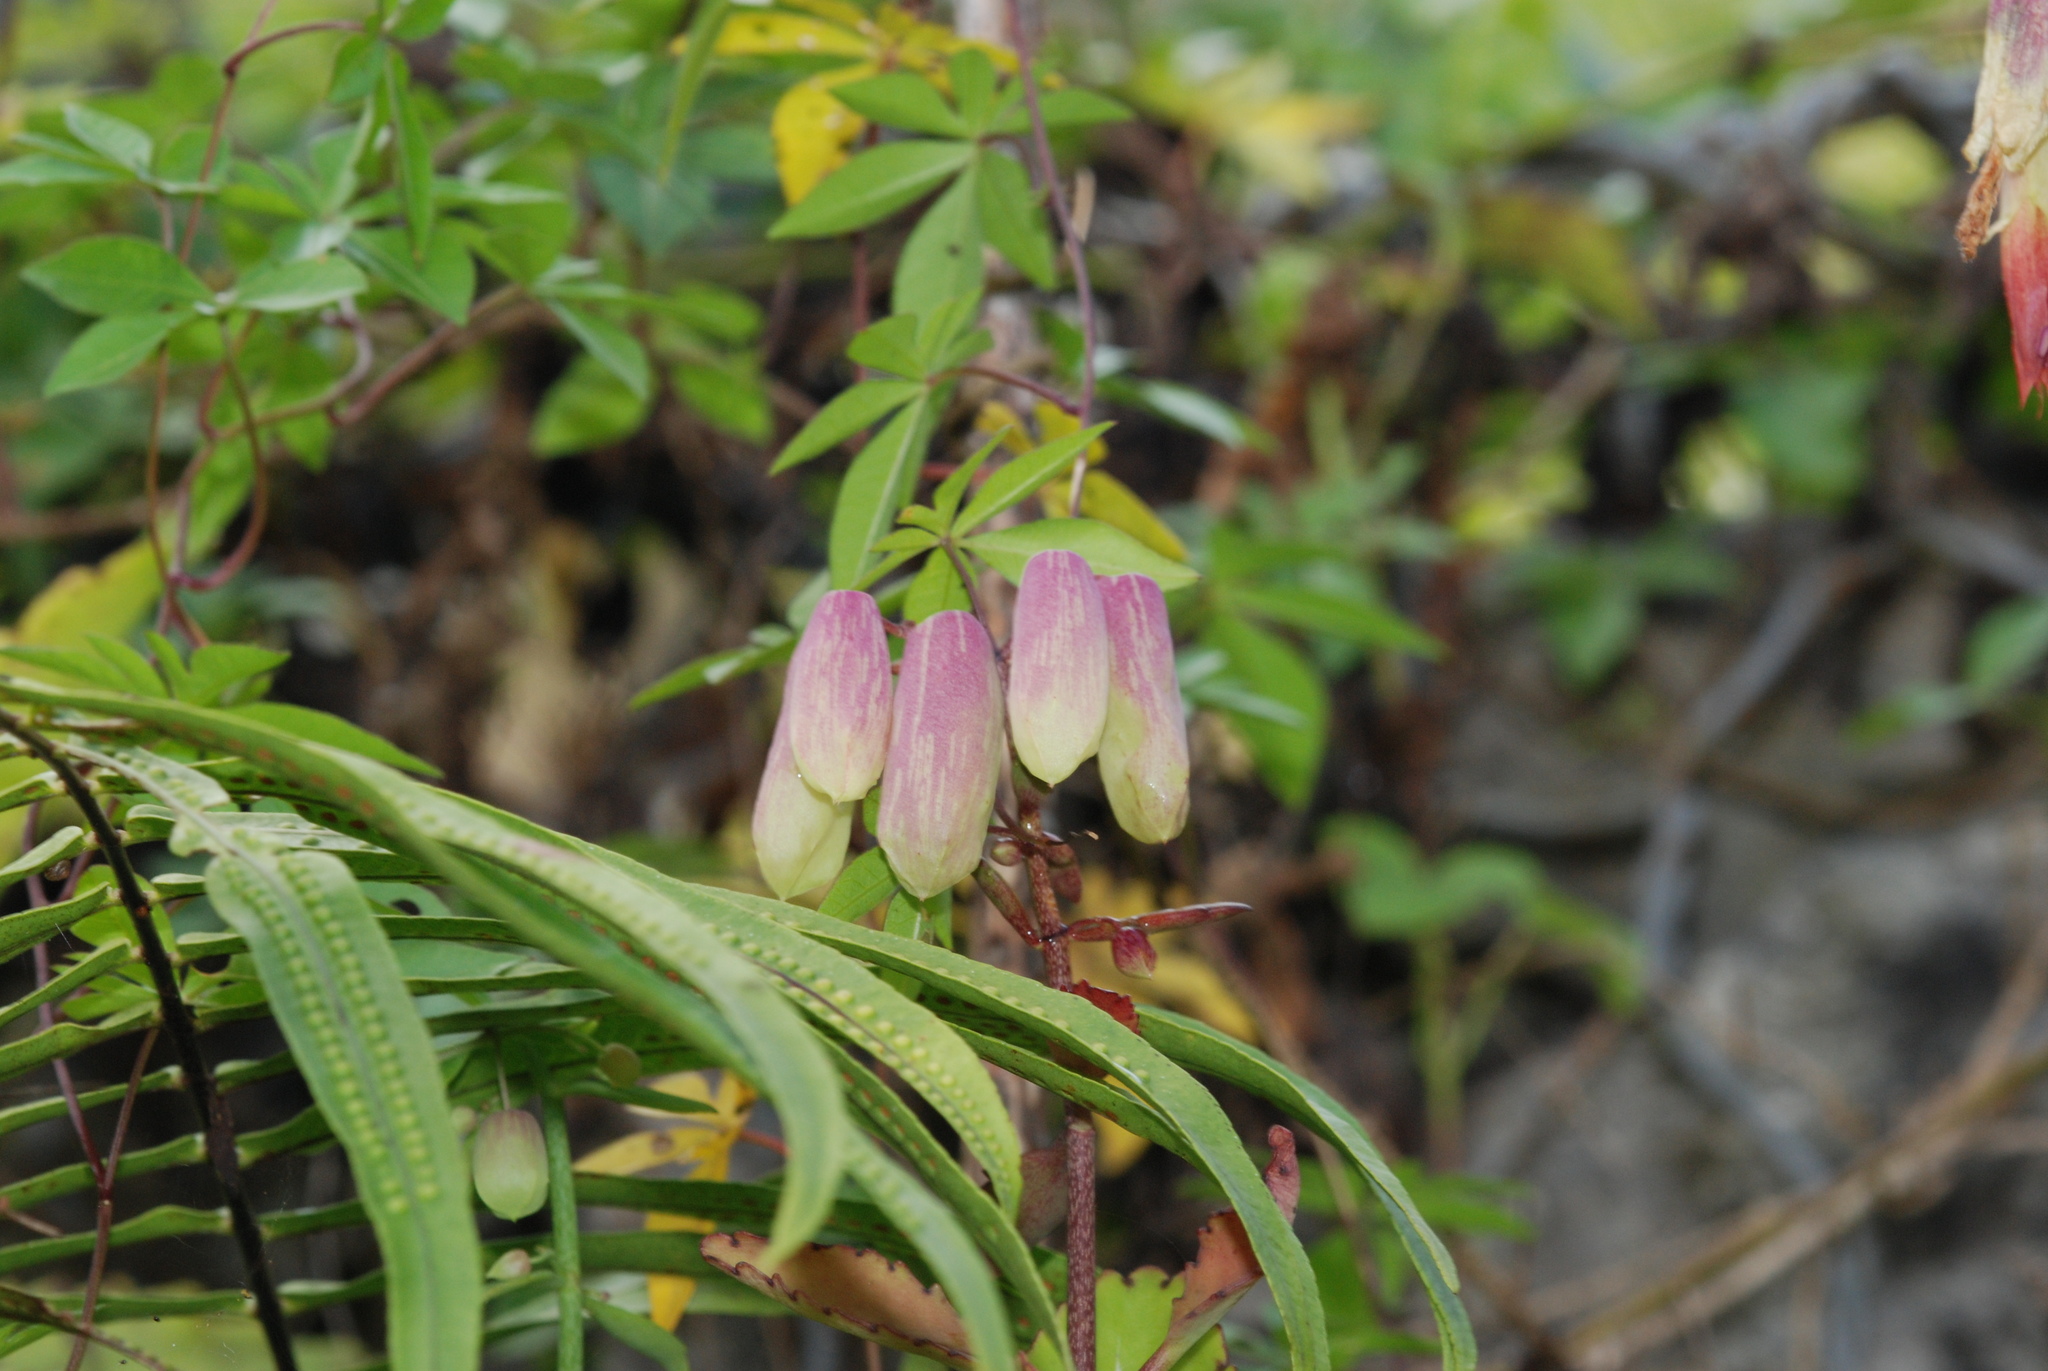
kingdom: Plantae
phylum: Tracheophyta
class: Magnoliopsida
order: Saxifragales
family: Crassulaceae
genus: Kalanchoe
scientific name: Kalanchoe pinnata
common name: Cathedral bells
